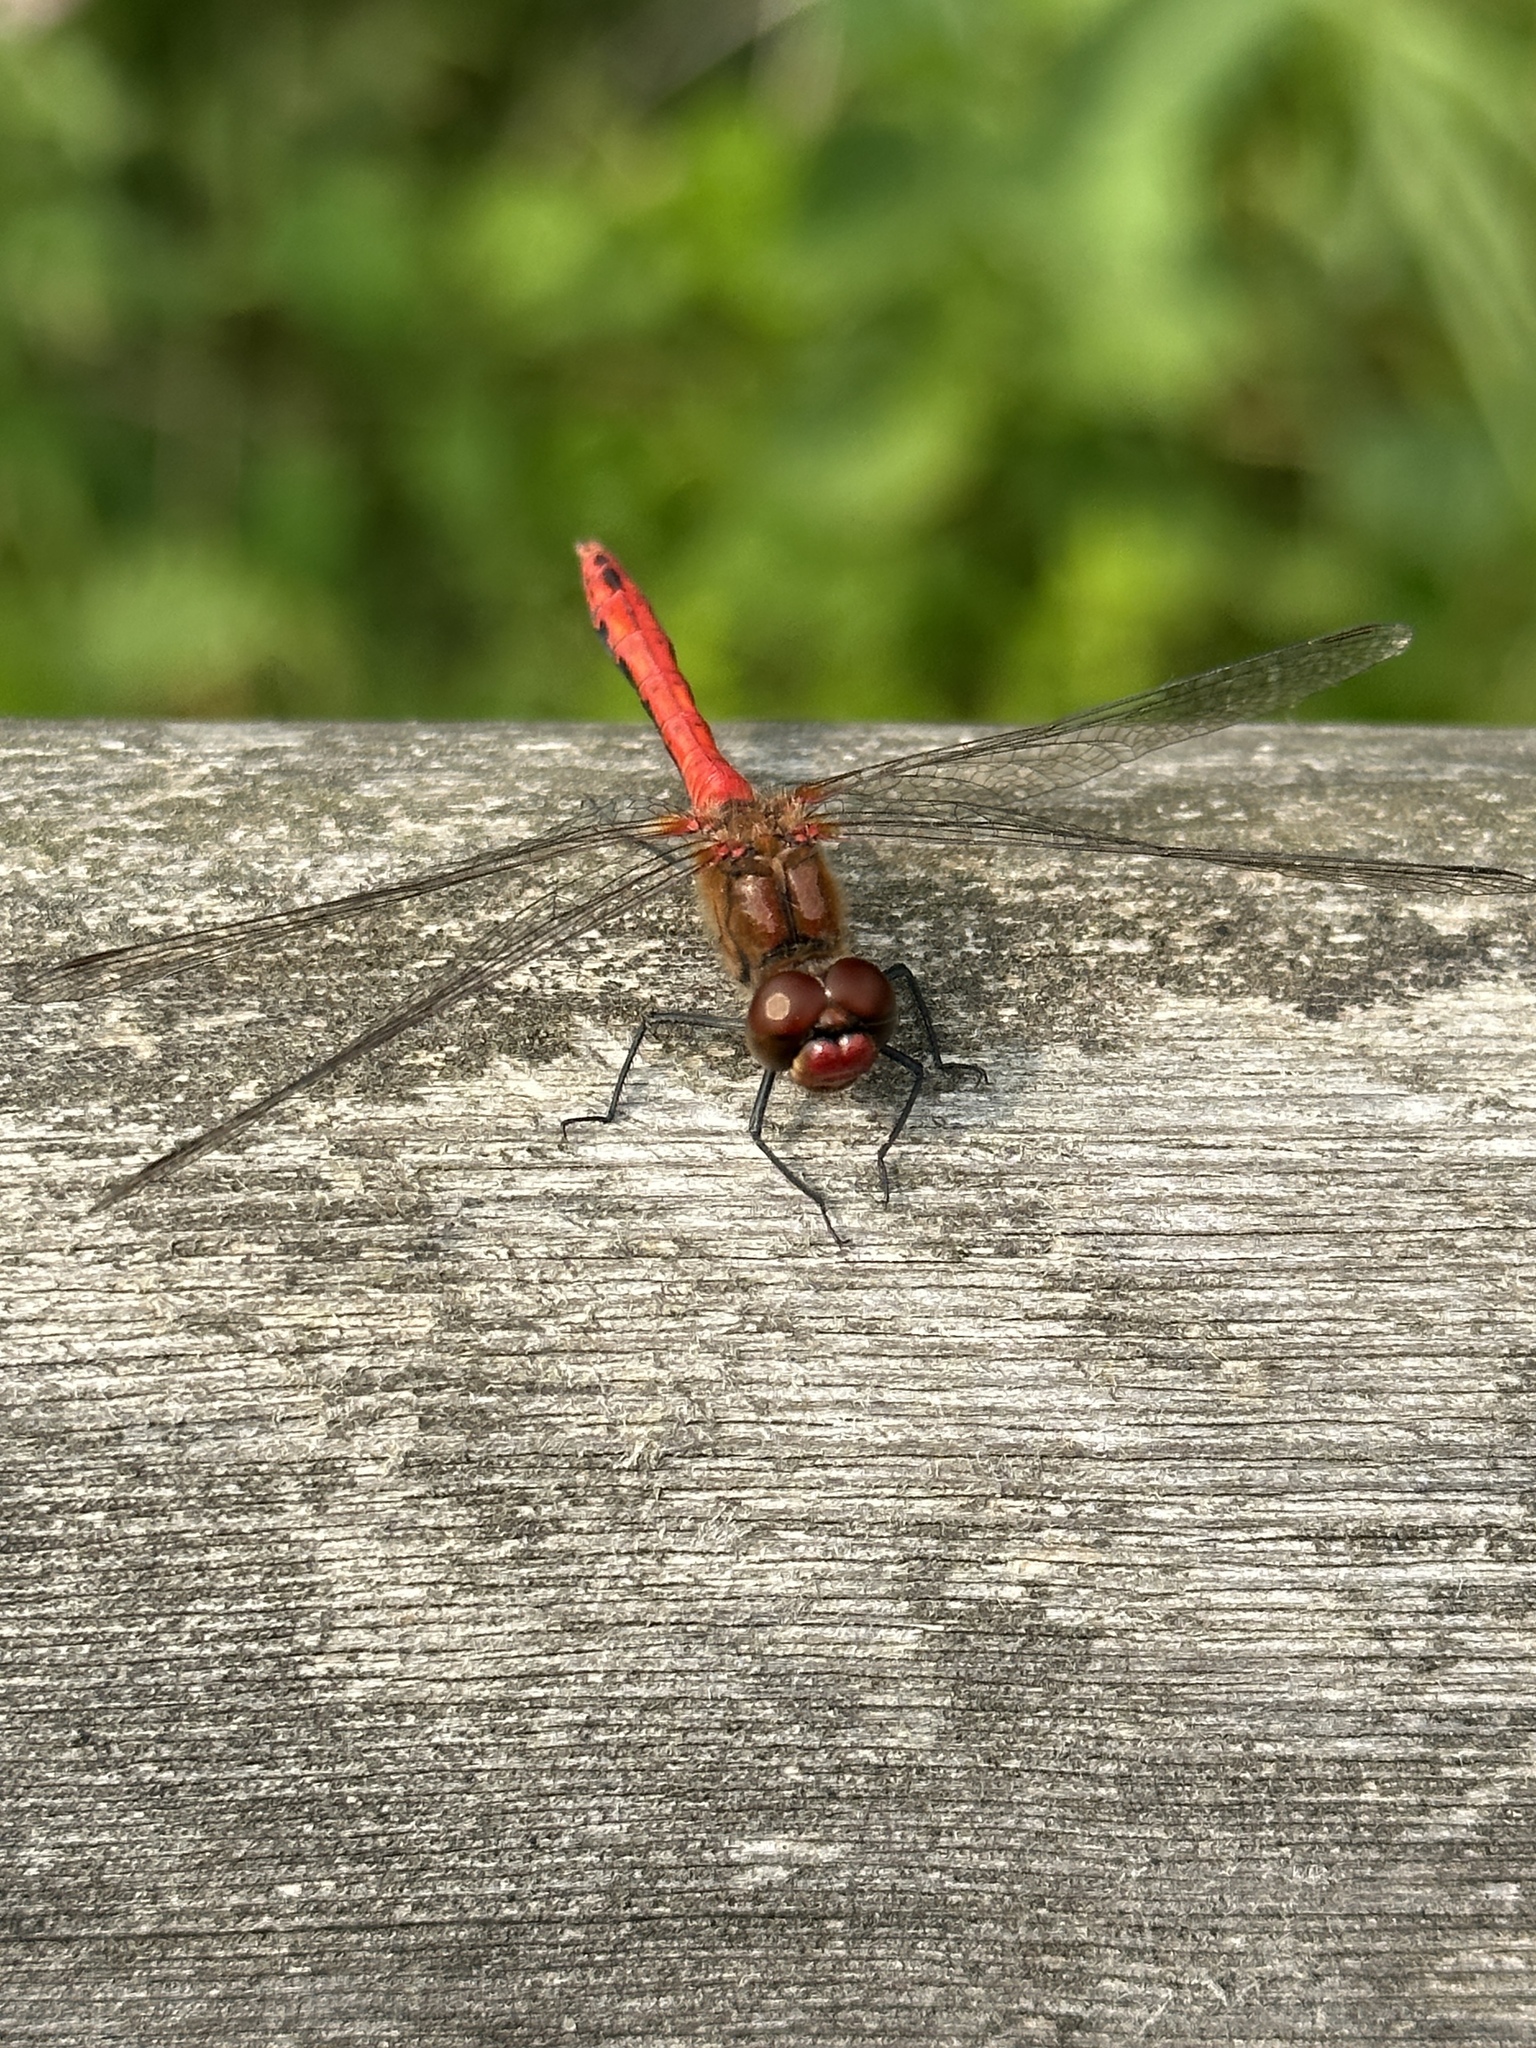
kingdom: Animalia
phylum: Arthropoda
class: Insecta
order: Odonata
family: Libellulidae
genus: Sympetrum
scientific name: Sympetrum sanguineum
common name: Ruddy darter
